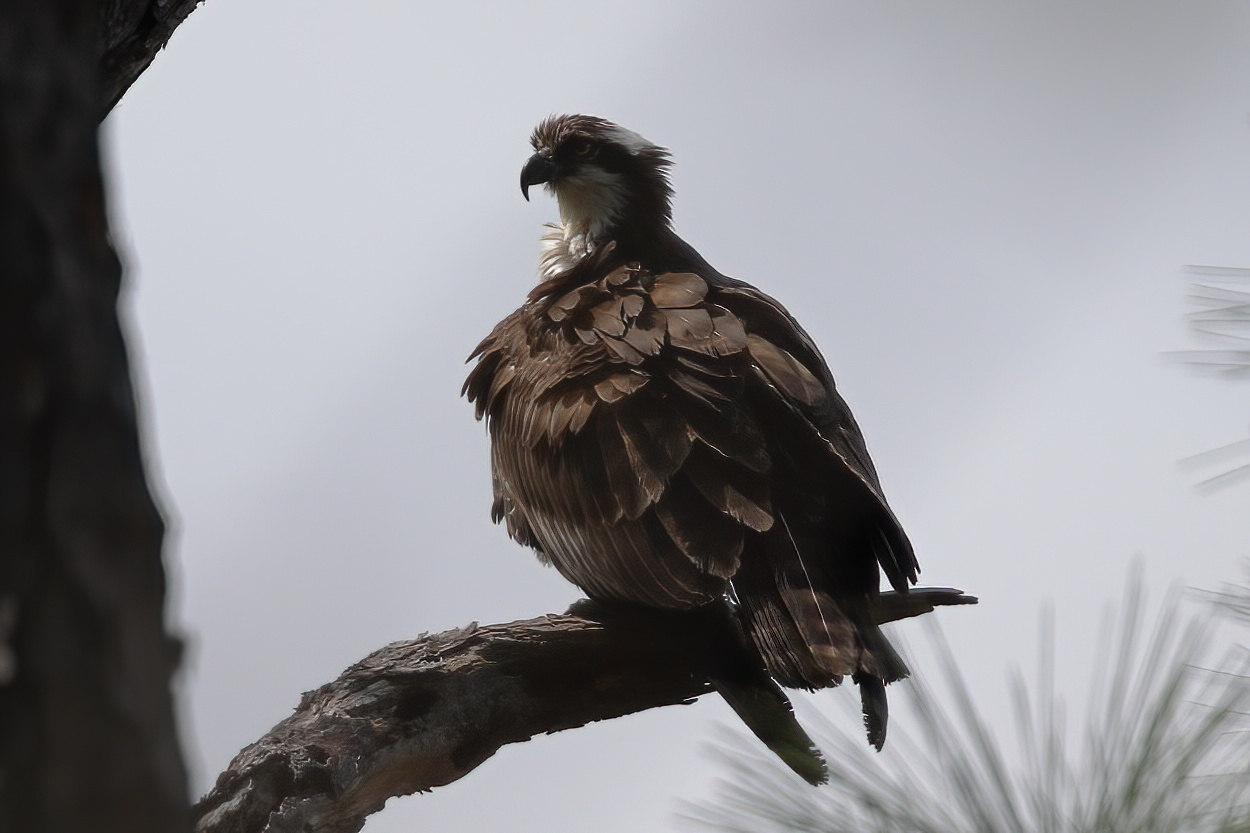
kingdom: Animalia
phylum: Chordata
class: Aves
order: Accipitriformes
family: Pandionidae
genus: Pandion
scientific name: Pandion haliaetus
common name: Osprey
